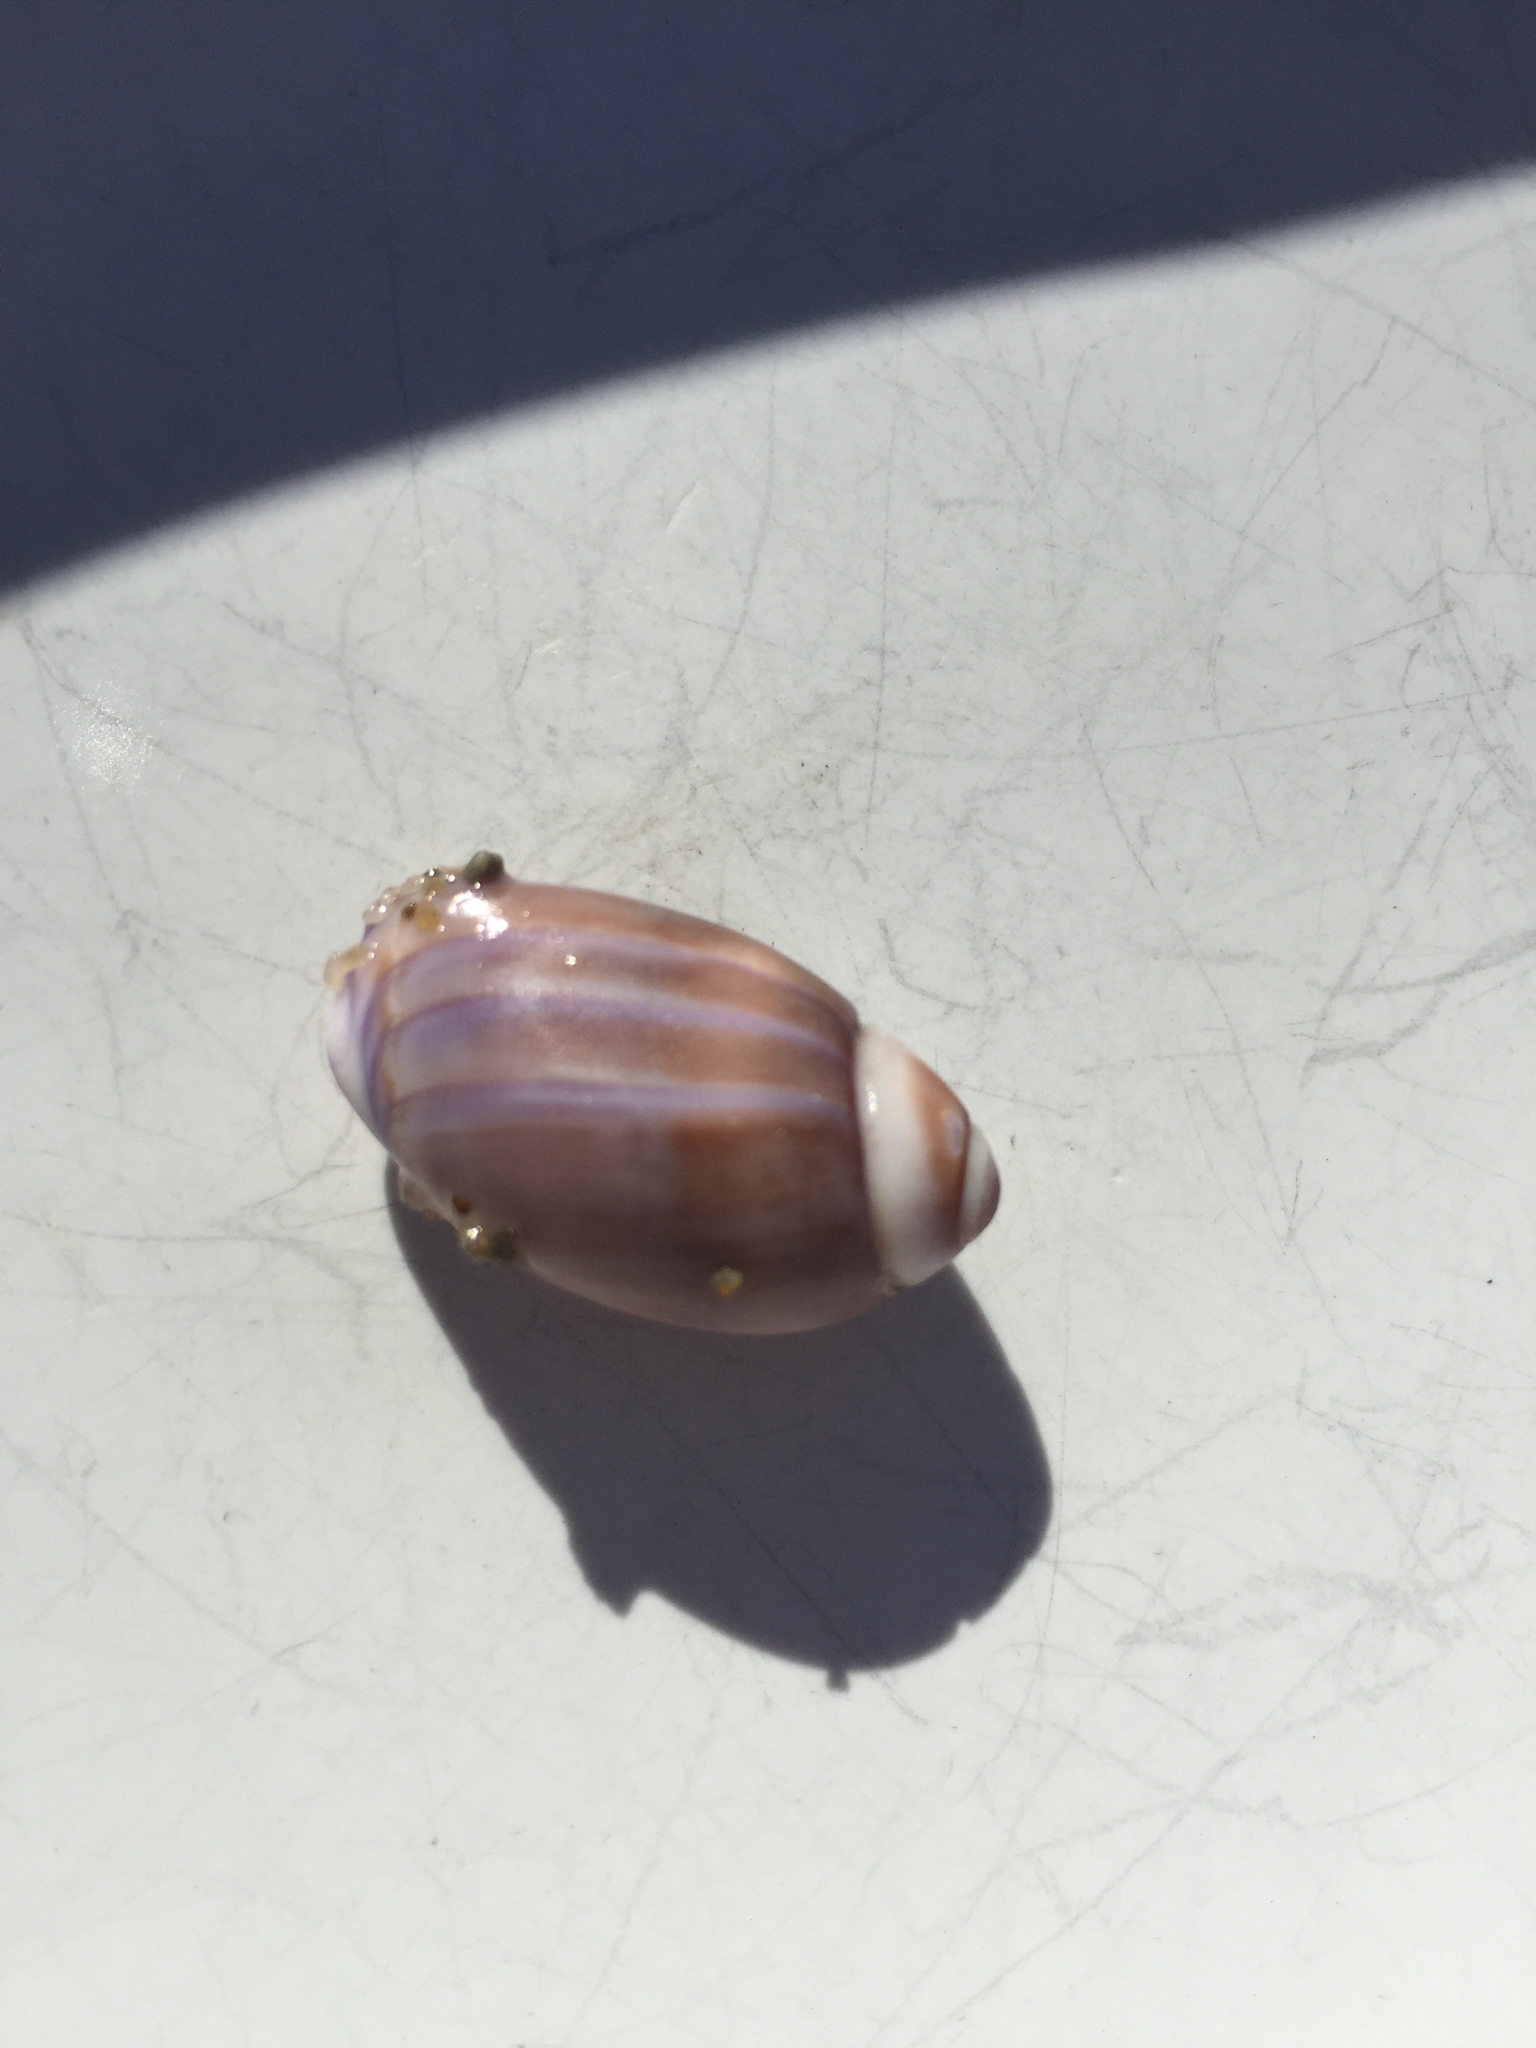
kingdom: Animalia
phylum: Mollusca
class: Gastropoda
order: Neogastropoda
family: Olividae
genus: Callianax
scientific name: Callianax biplicata
